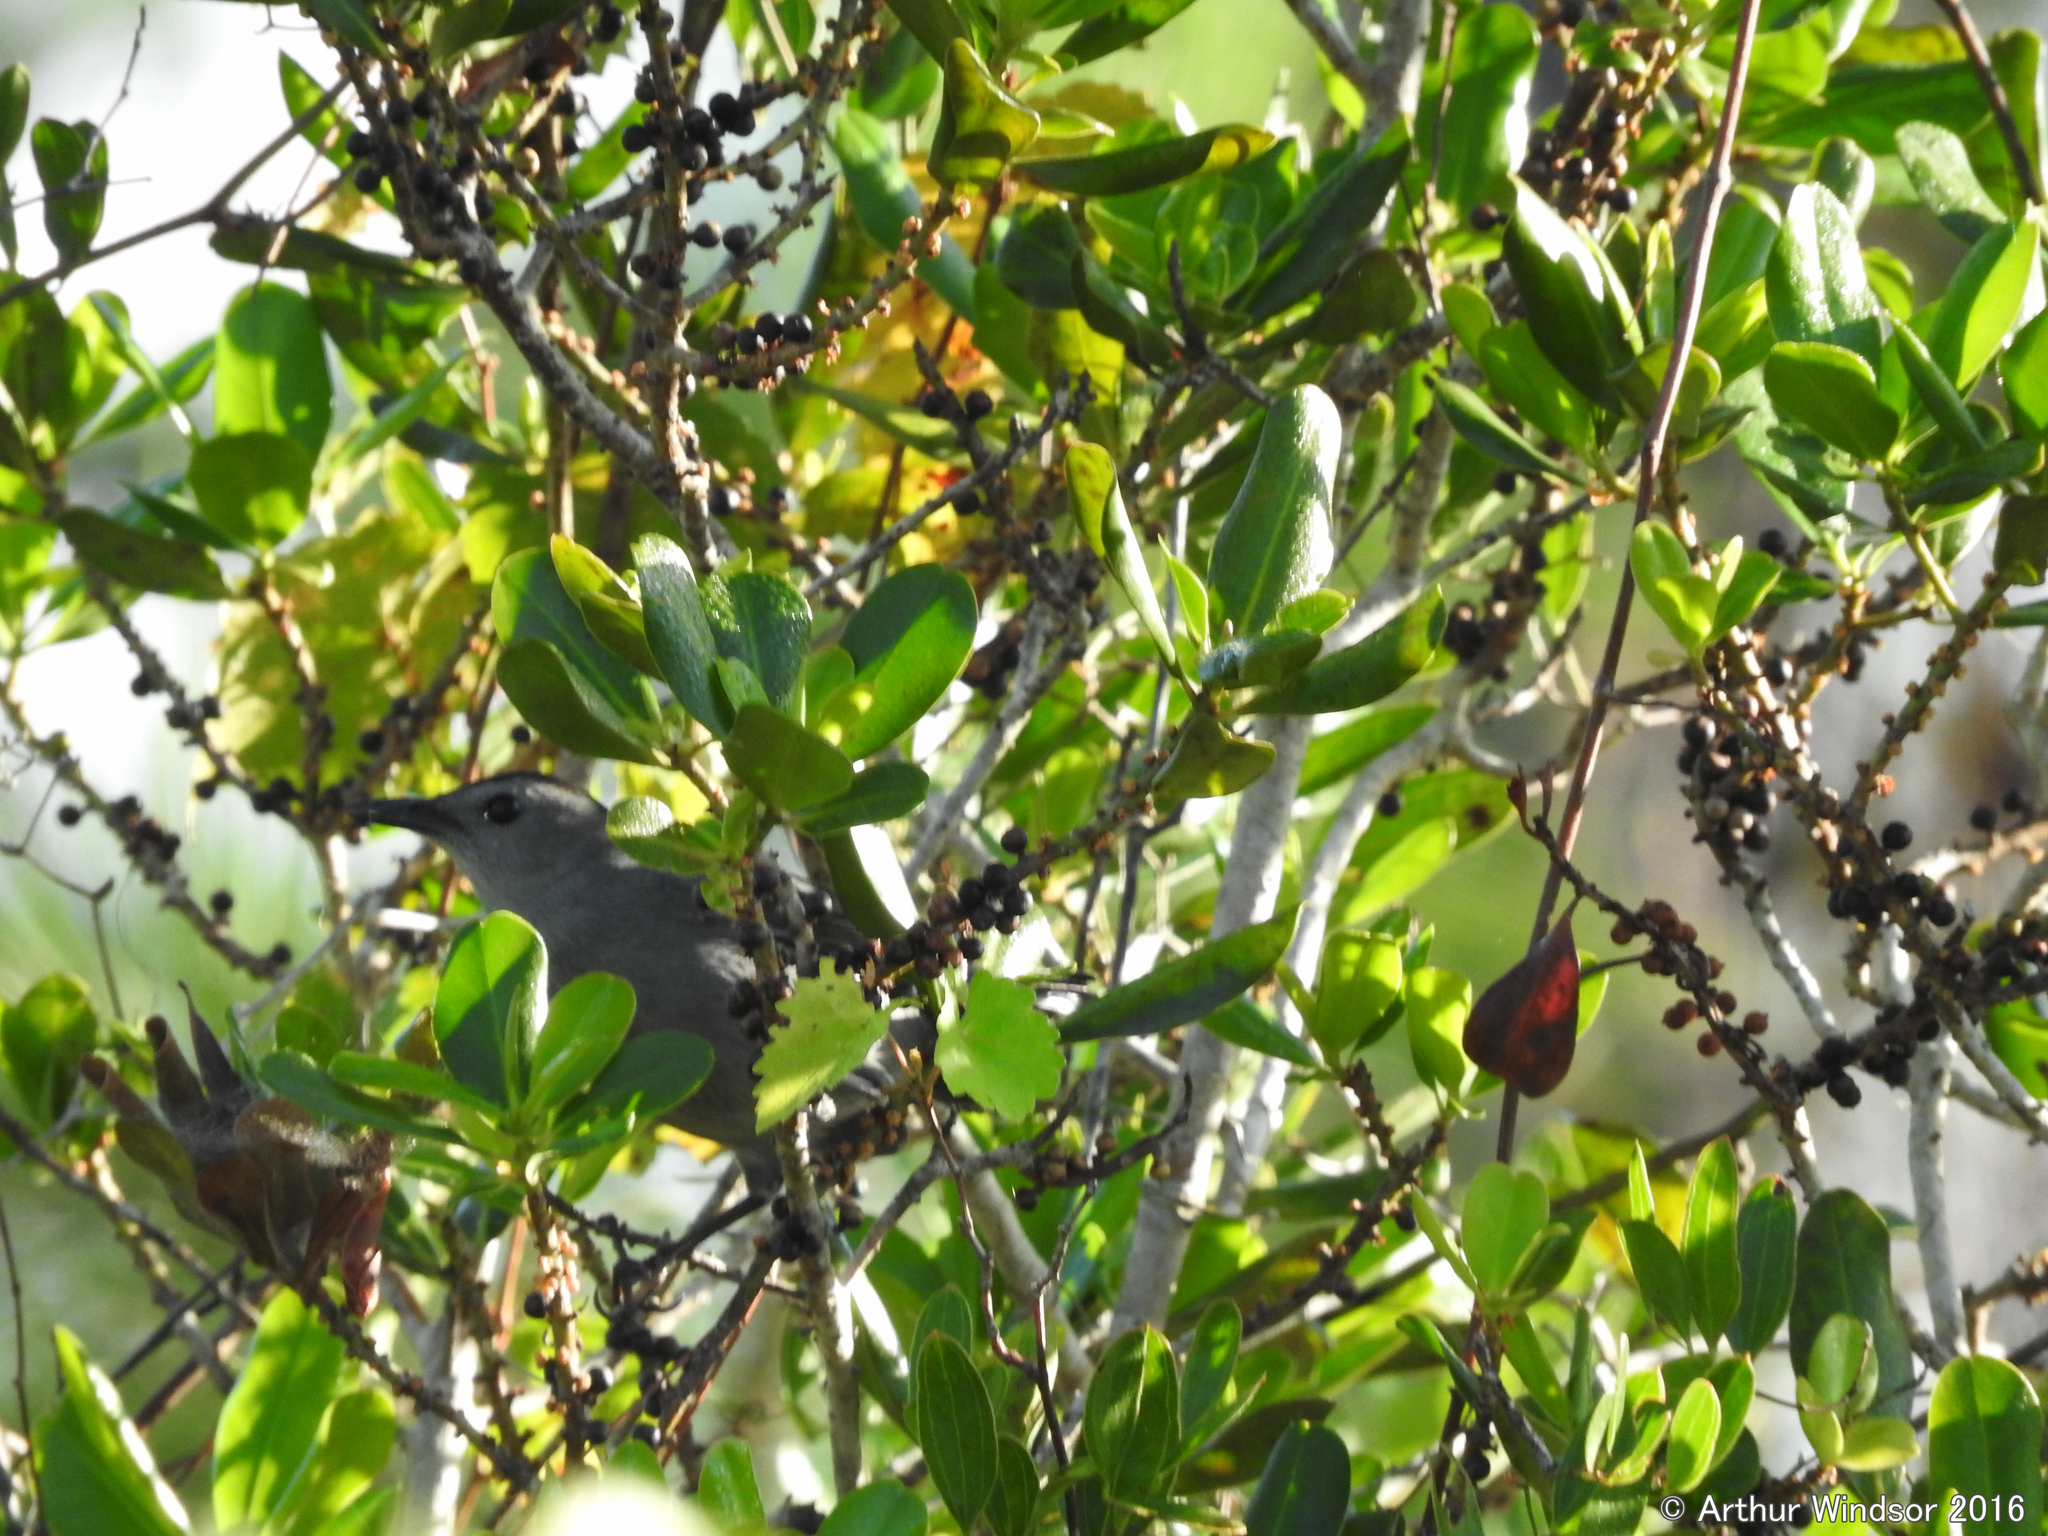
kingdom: Animalia
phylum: Chordata
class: Aves
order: Passeriformes
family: Mimidae
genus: Dumetella
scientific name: Dumetella carolinensis
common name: Gray catbird
